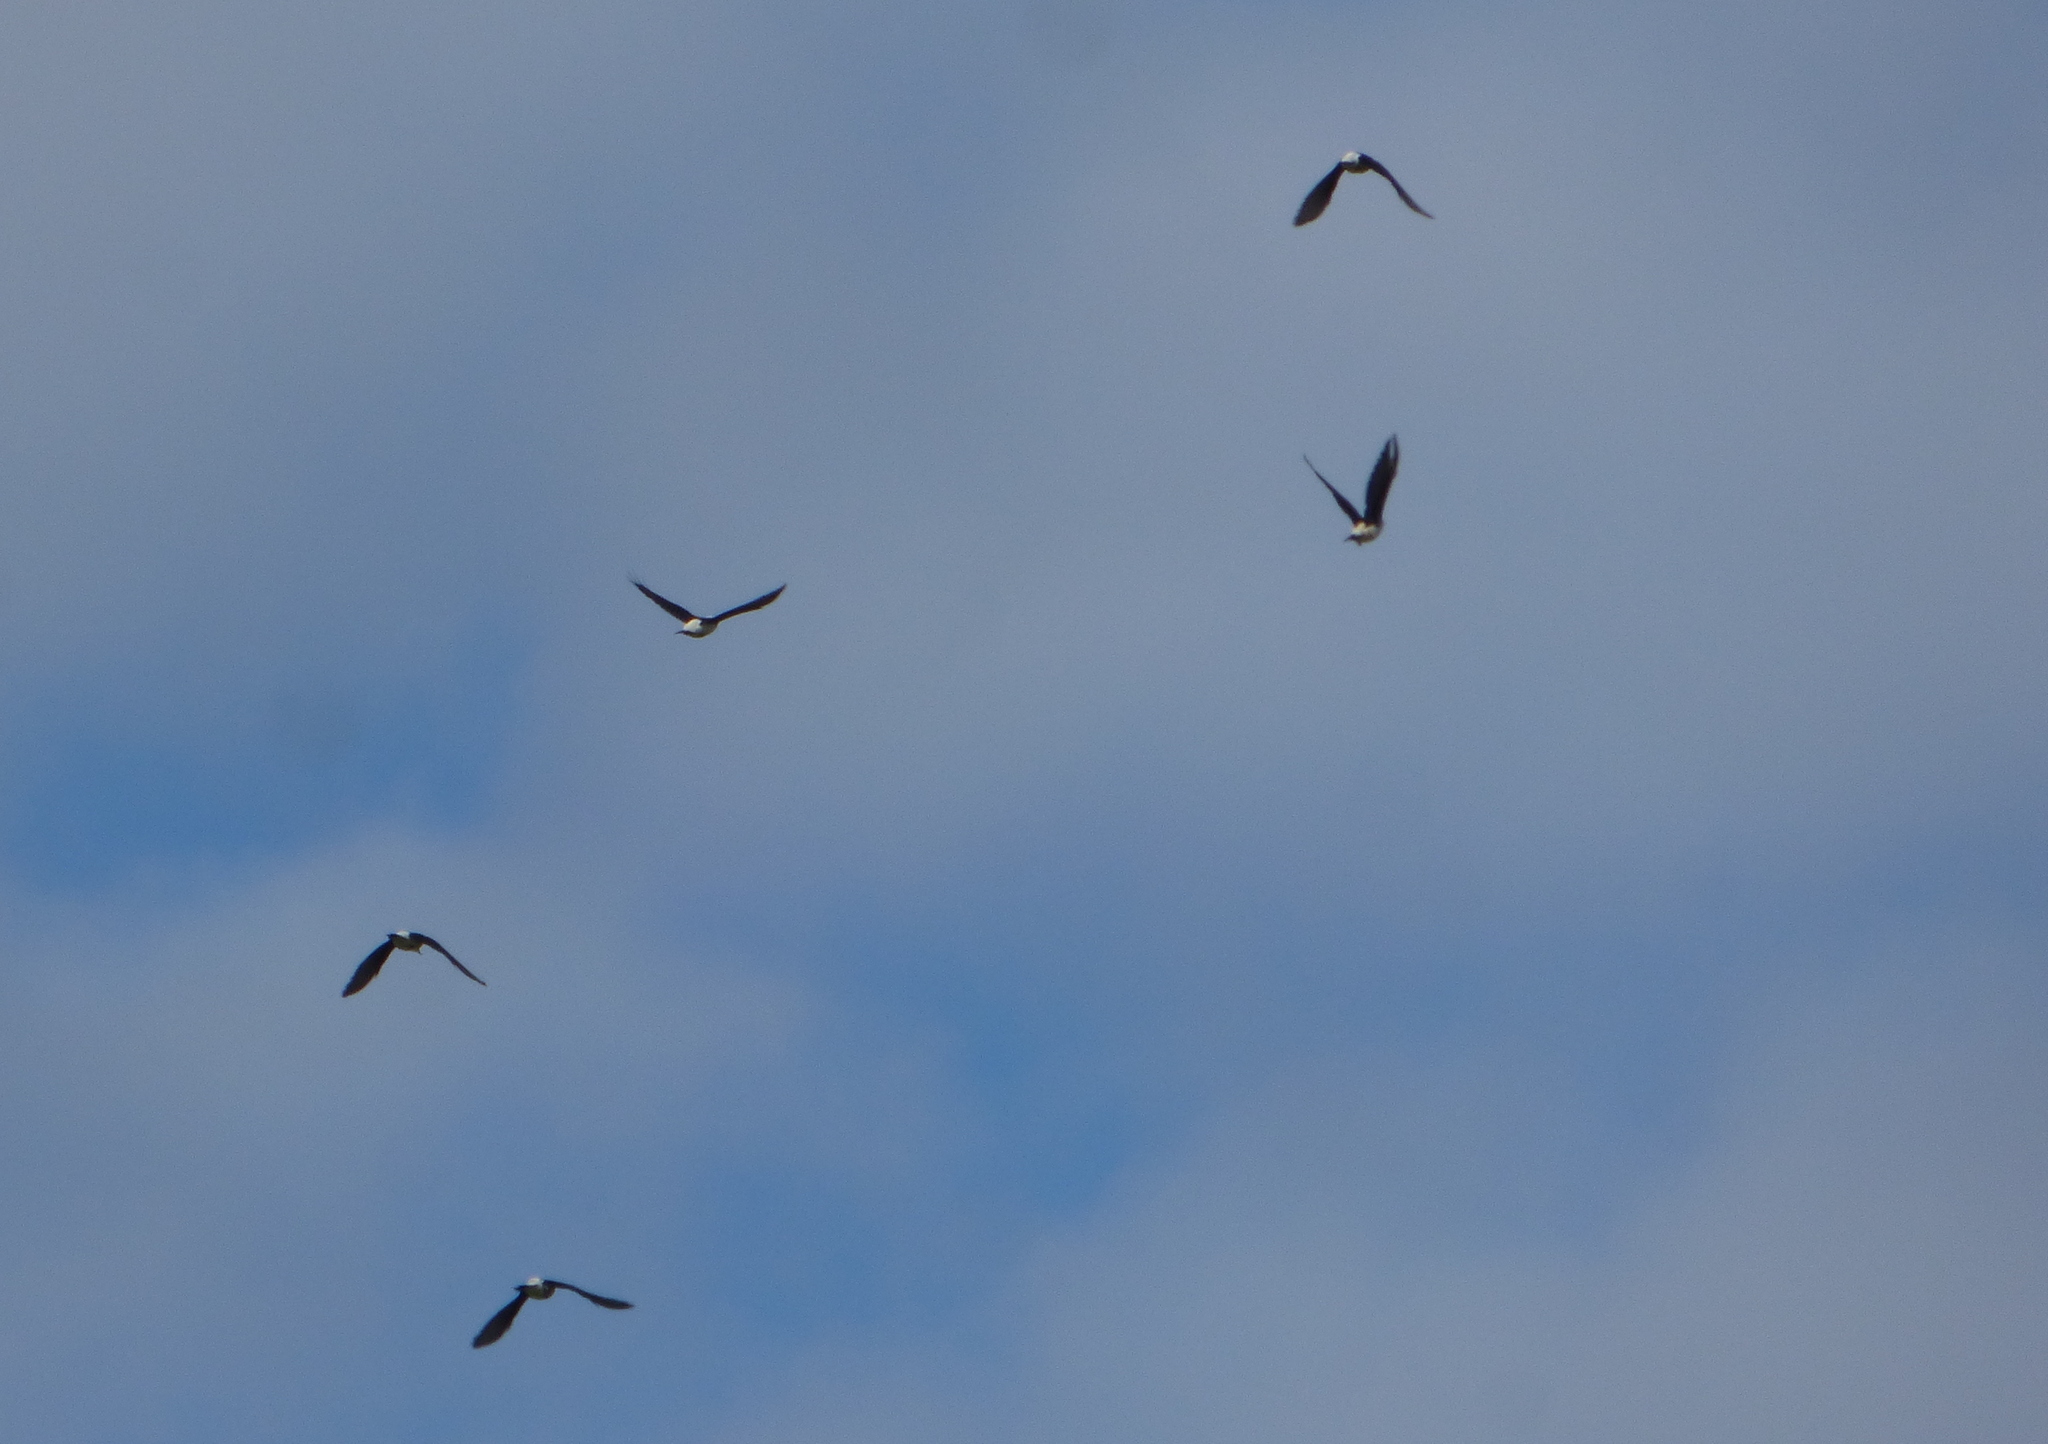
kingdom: Animalia
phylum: Chordata
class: Aves
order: Piciformes
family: Picidae
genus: Melanerpes
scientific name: Melanerpes candidus
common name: White woodpecker
